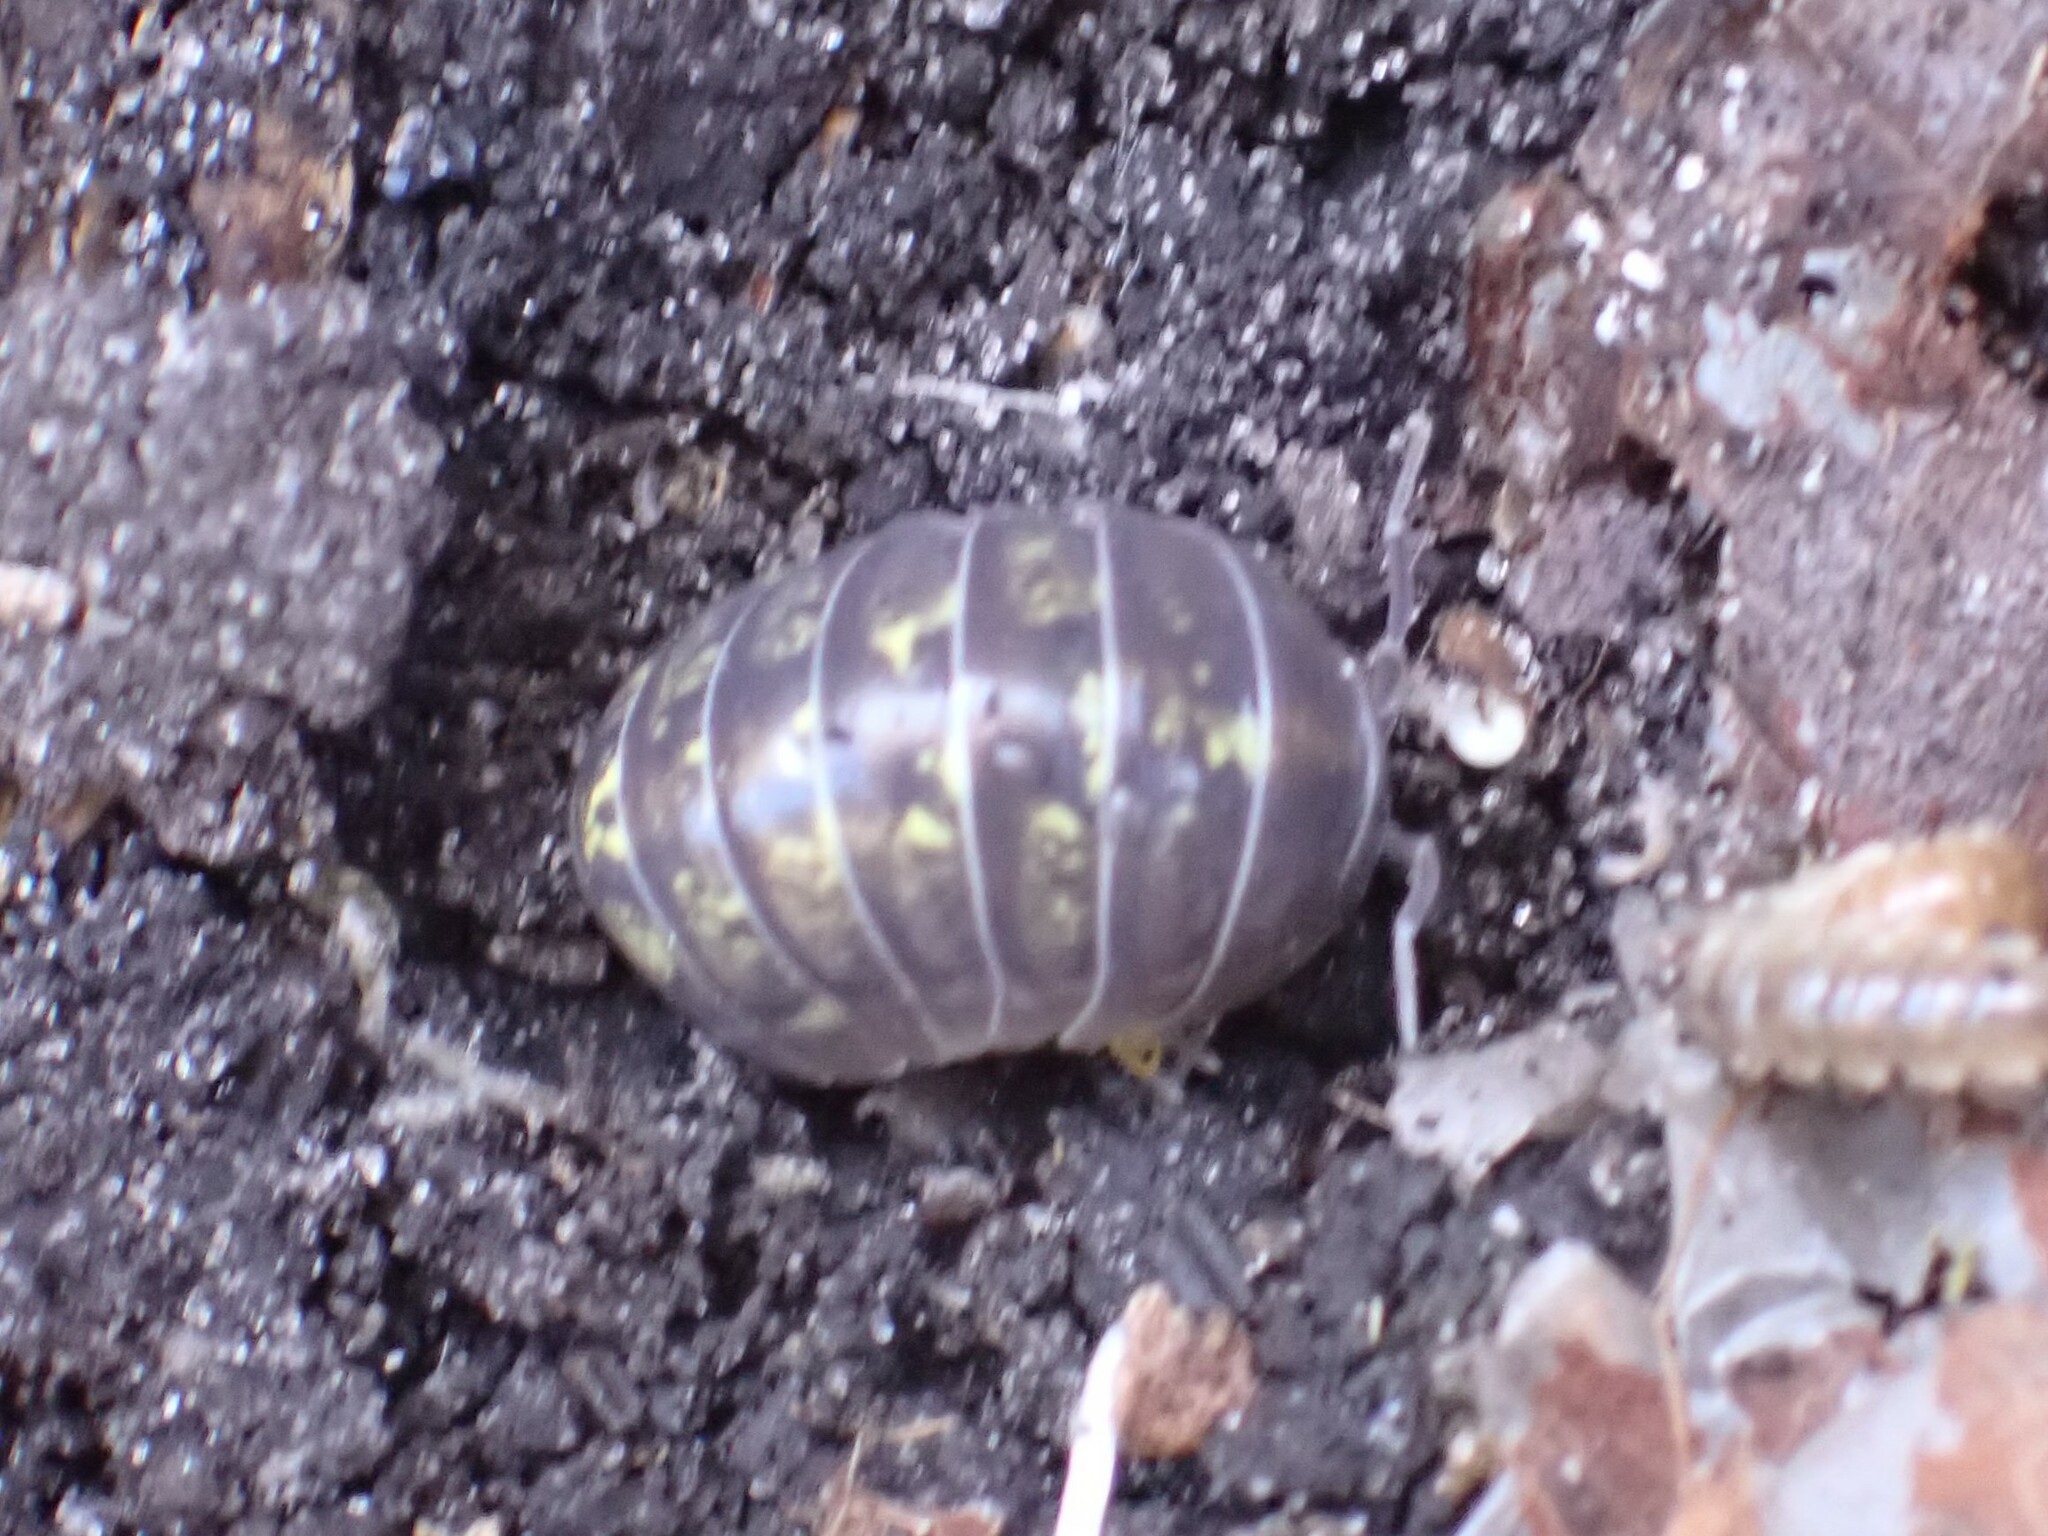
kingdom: Animalia
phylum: Arthropoda
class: Malacostraca
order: Isopoda
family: Armadillidiidae
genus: Armadillidium
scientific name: Armadillidium vulgare
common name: Common pill woodlouse
